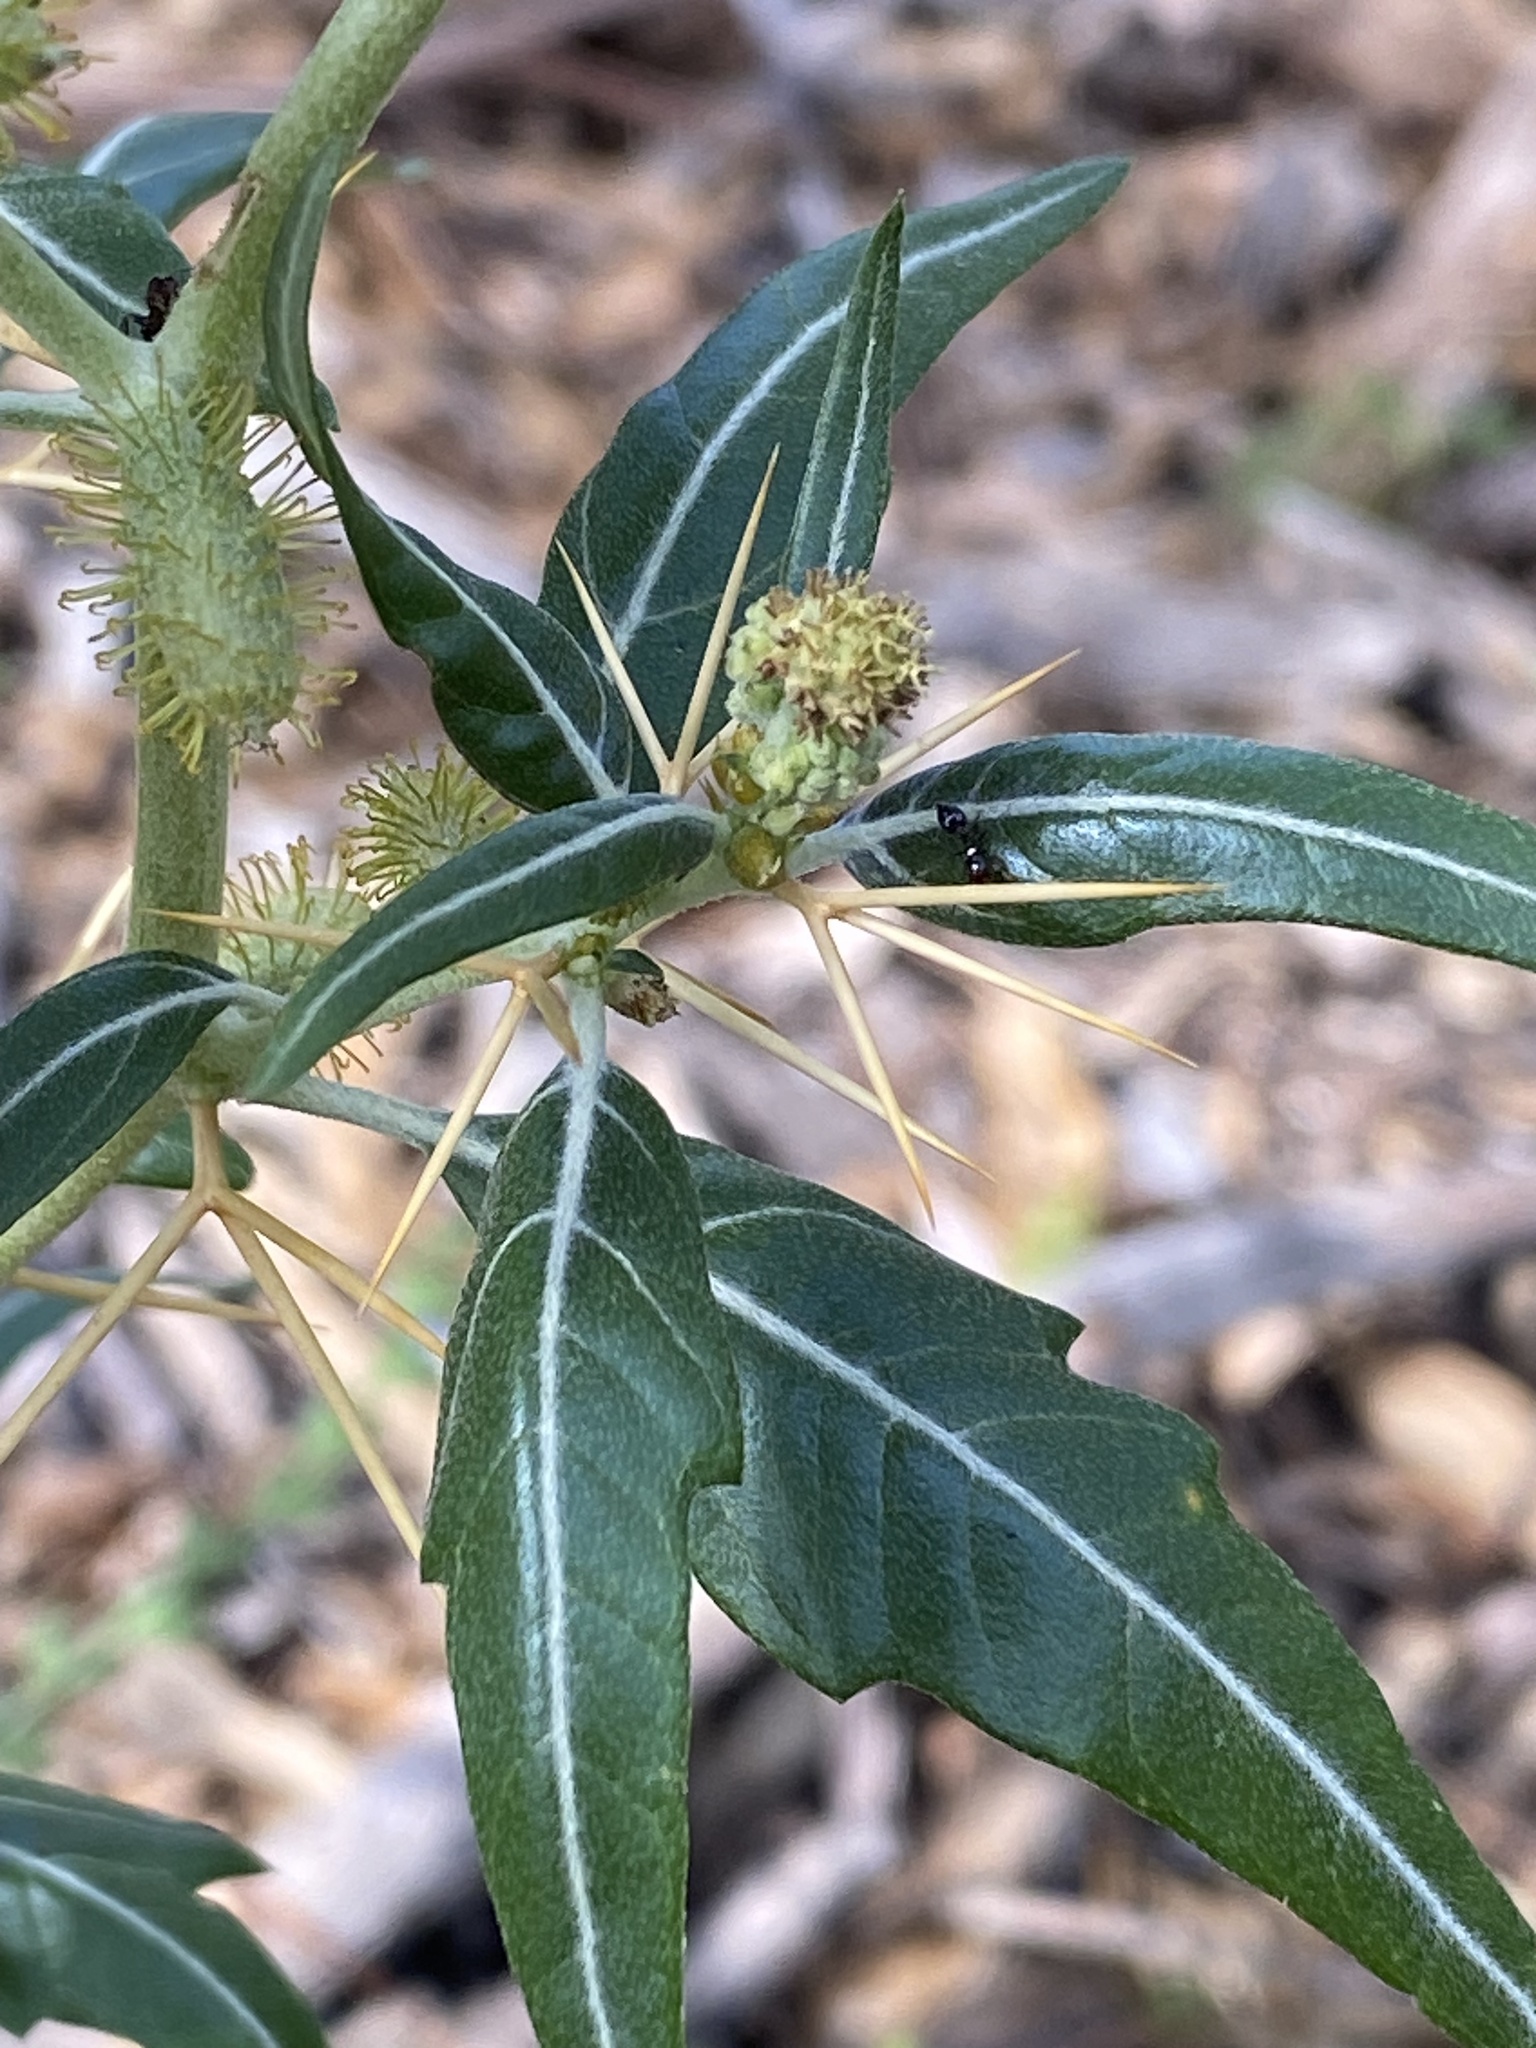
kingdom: Plantae
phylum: Tracheophyta
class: Magnoliopsida
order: Asterales
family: Asteraceae
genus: Xanthium
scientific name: Xanthium spinosum
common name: Spiny cocklebur
